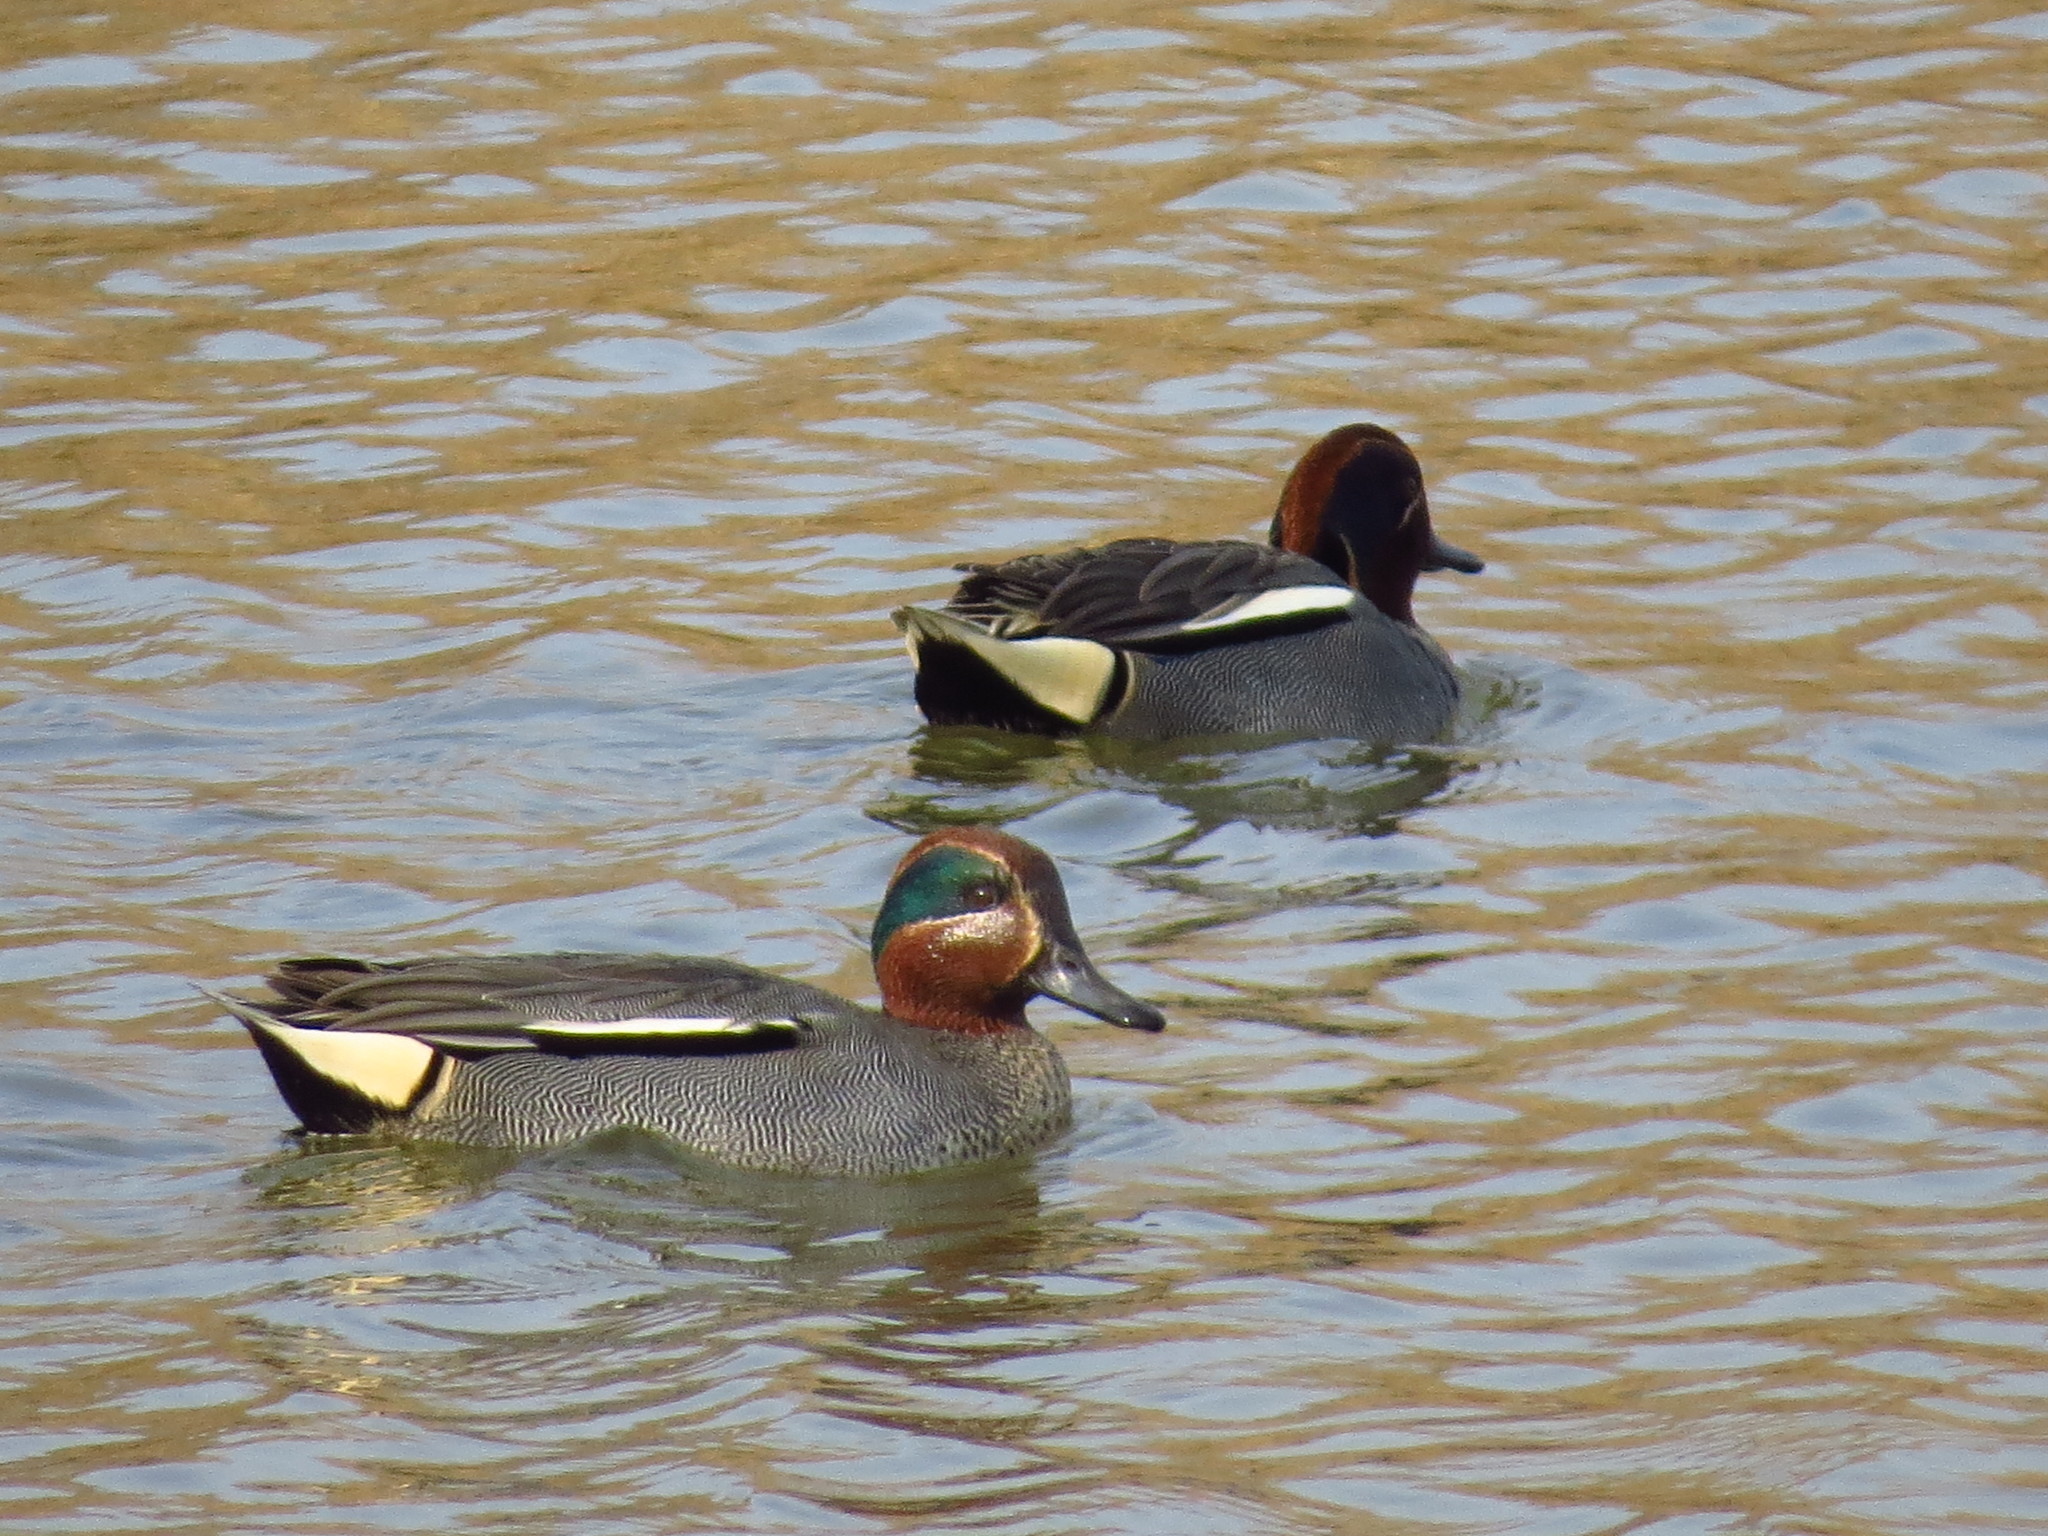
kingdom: Animalia
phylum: Chordata
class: Aves
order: Anseriformes
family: Anatidae
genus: Anas
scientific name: Anas crecca
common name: Eurasian teal
